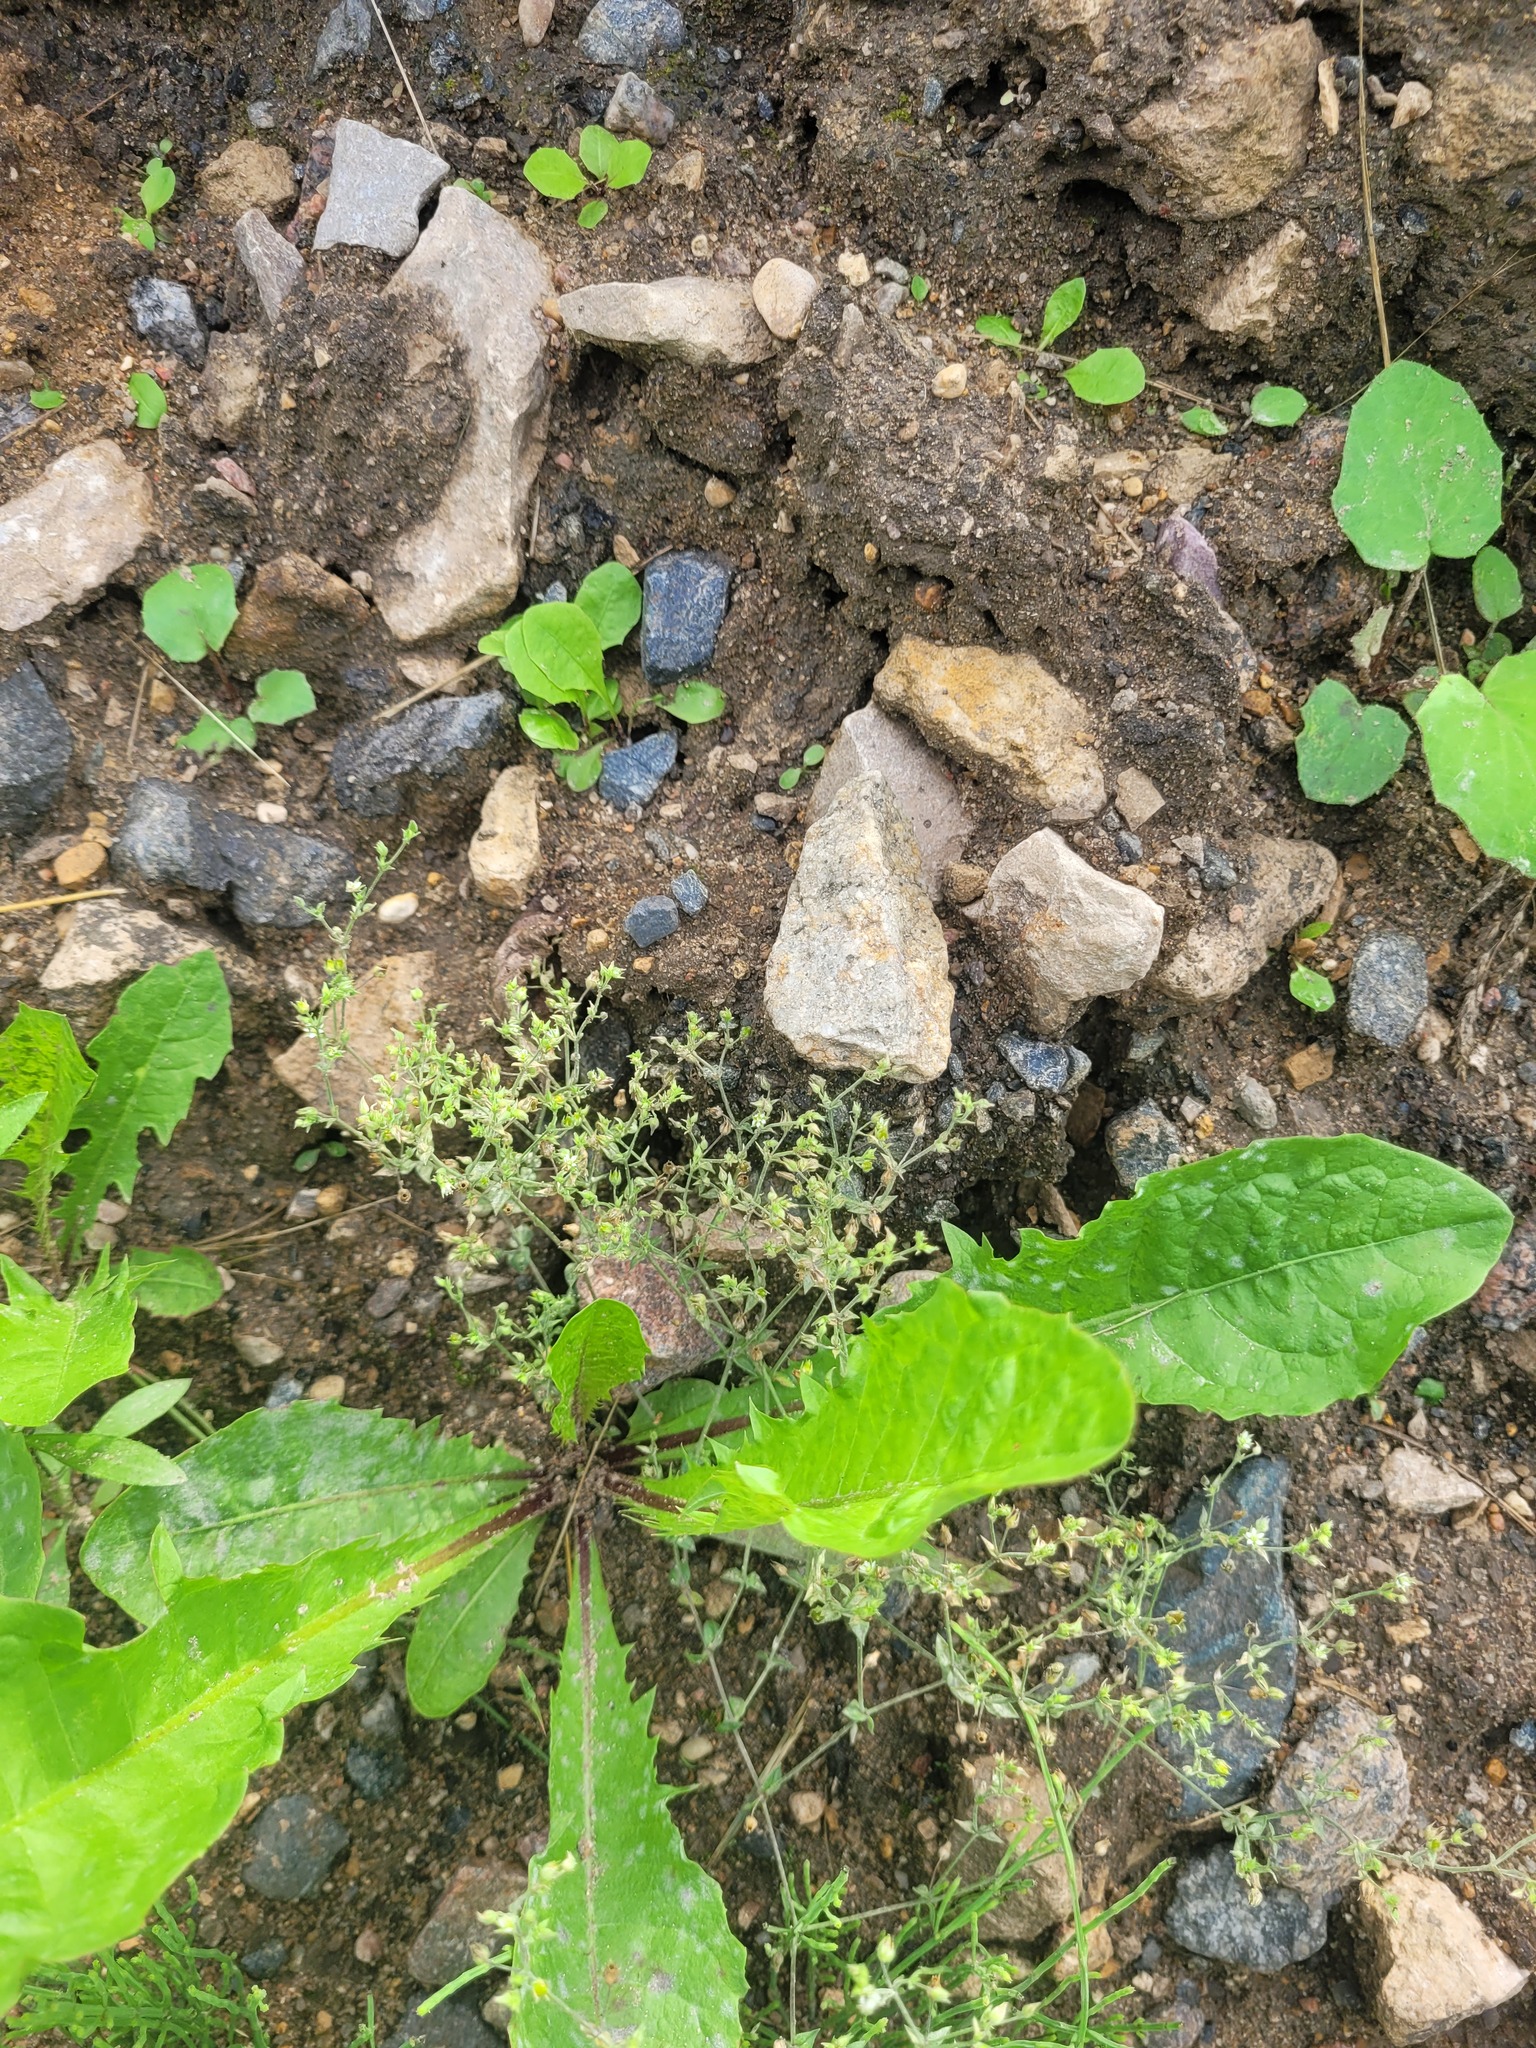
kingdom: Plantae
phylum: Tracheophyta
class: Magnoliopsida
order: Caryophyllales
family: Caryophyllaceae
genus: Arenaria
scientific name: Arenaria serpyllifolia
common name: Thyme-leaved sandwort
